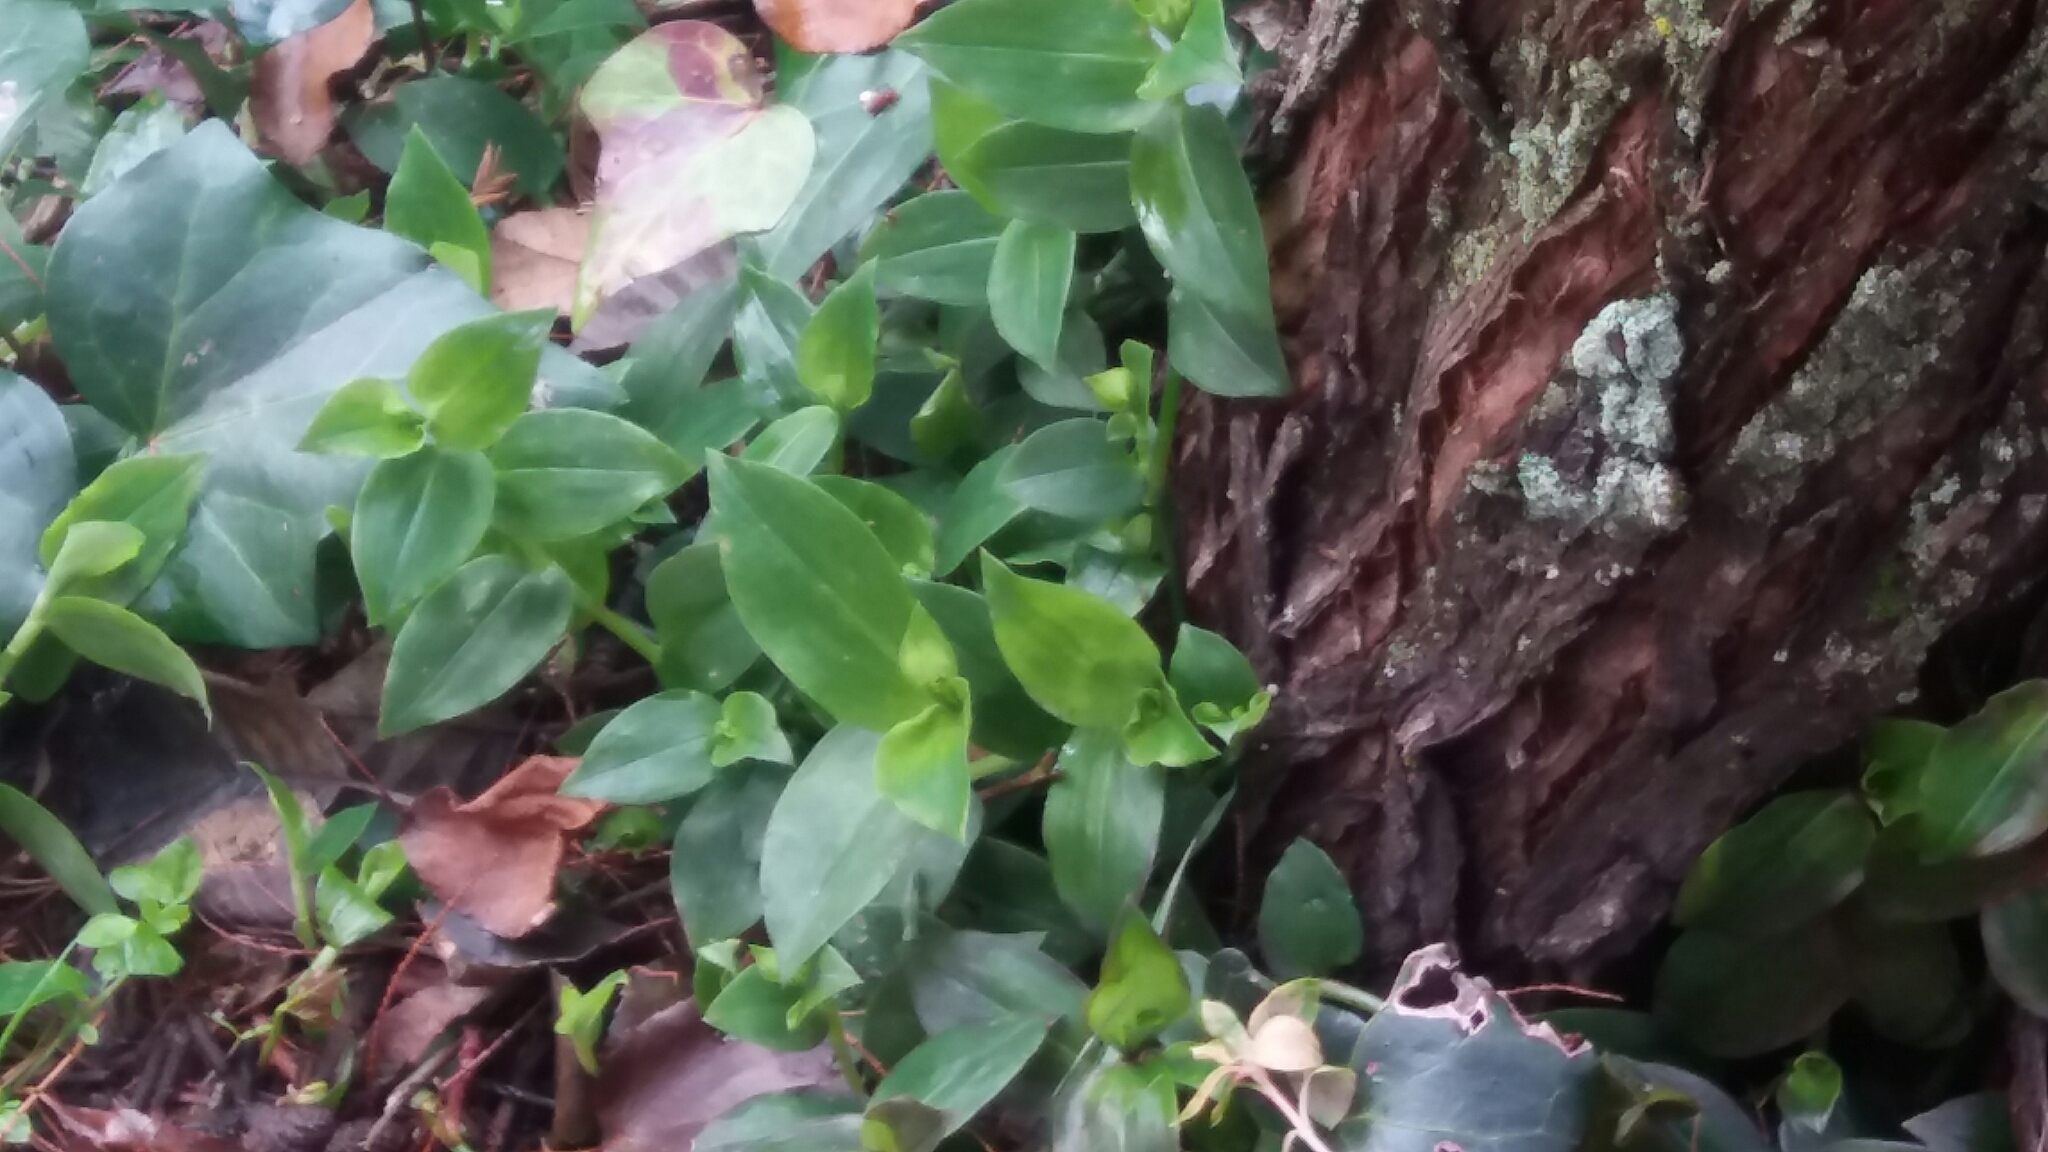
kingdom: Plantae
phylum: Tracheophyta
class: Liliopsida
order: Commelinales
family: Commelinaceae
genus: Tradescantia
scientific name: Tradescantia fluminensis
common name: Wandering-jew
